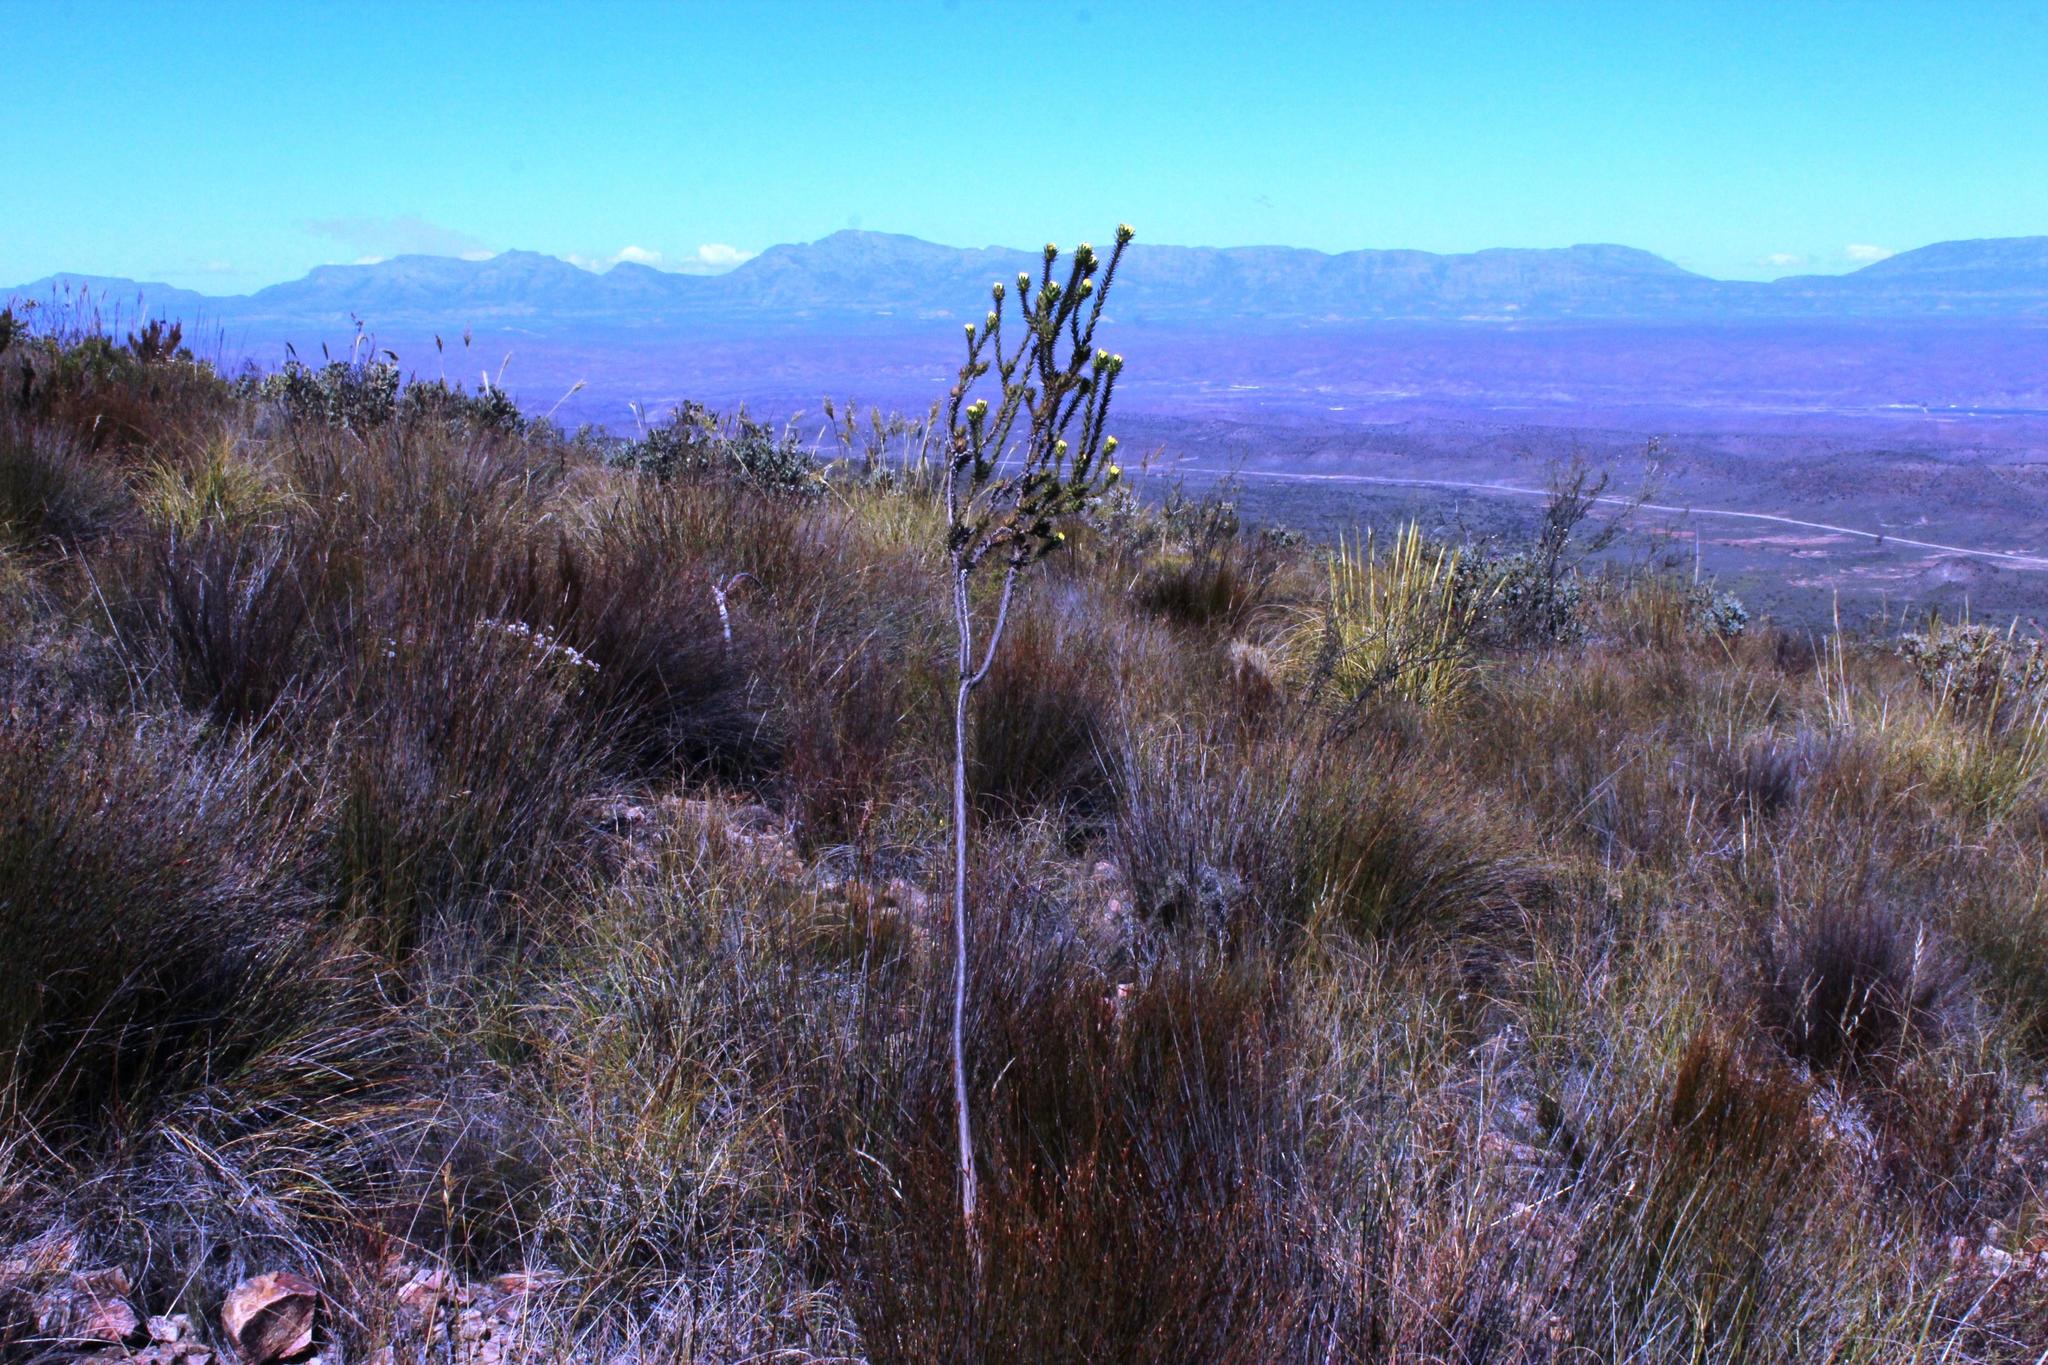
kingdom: Plantae
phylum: Tracheophyta
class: Magnoliopsida
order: Asterales
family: Asteraceae
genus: Oedera
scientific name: Oedera capensis
